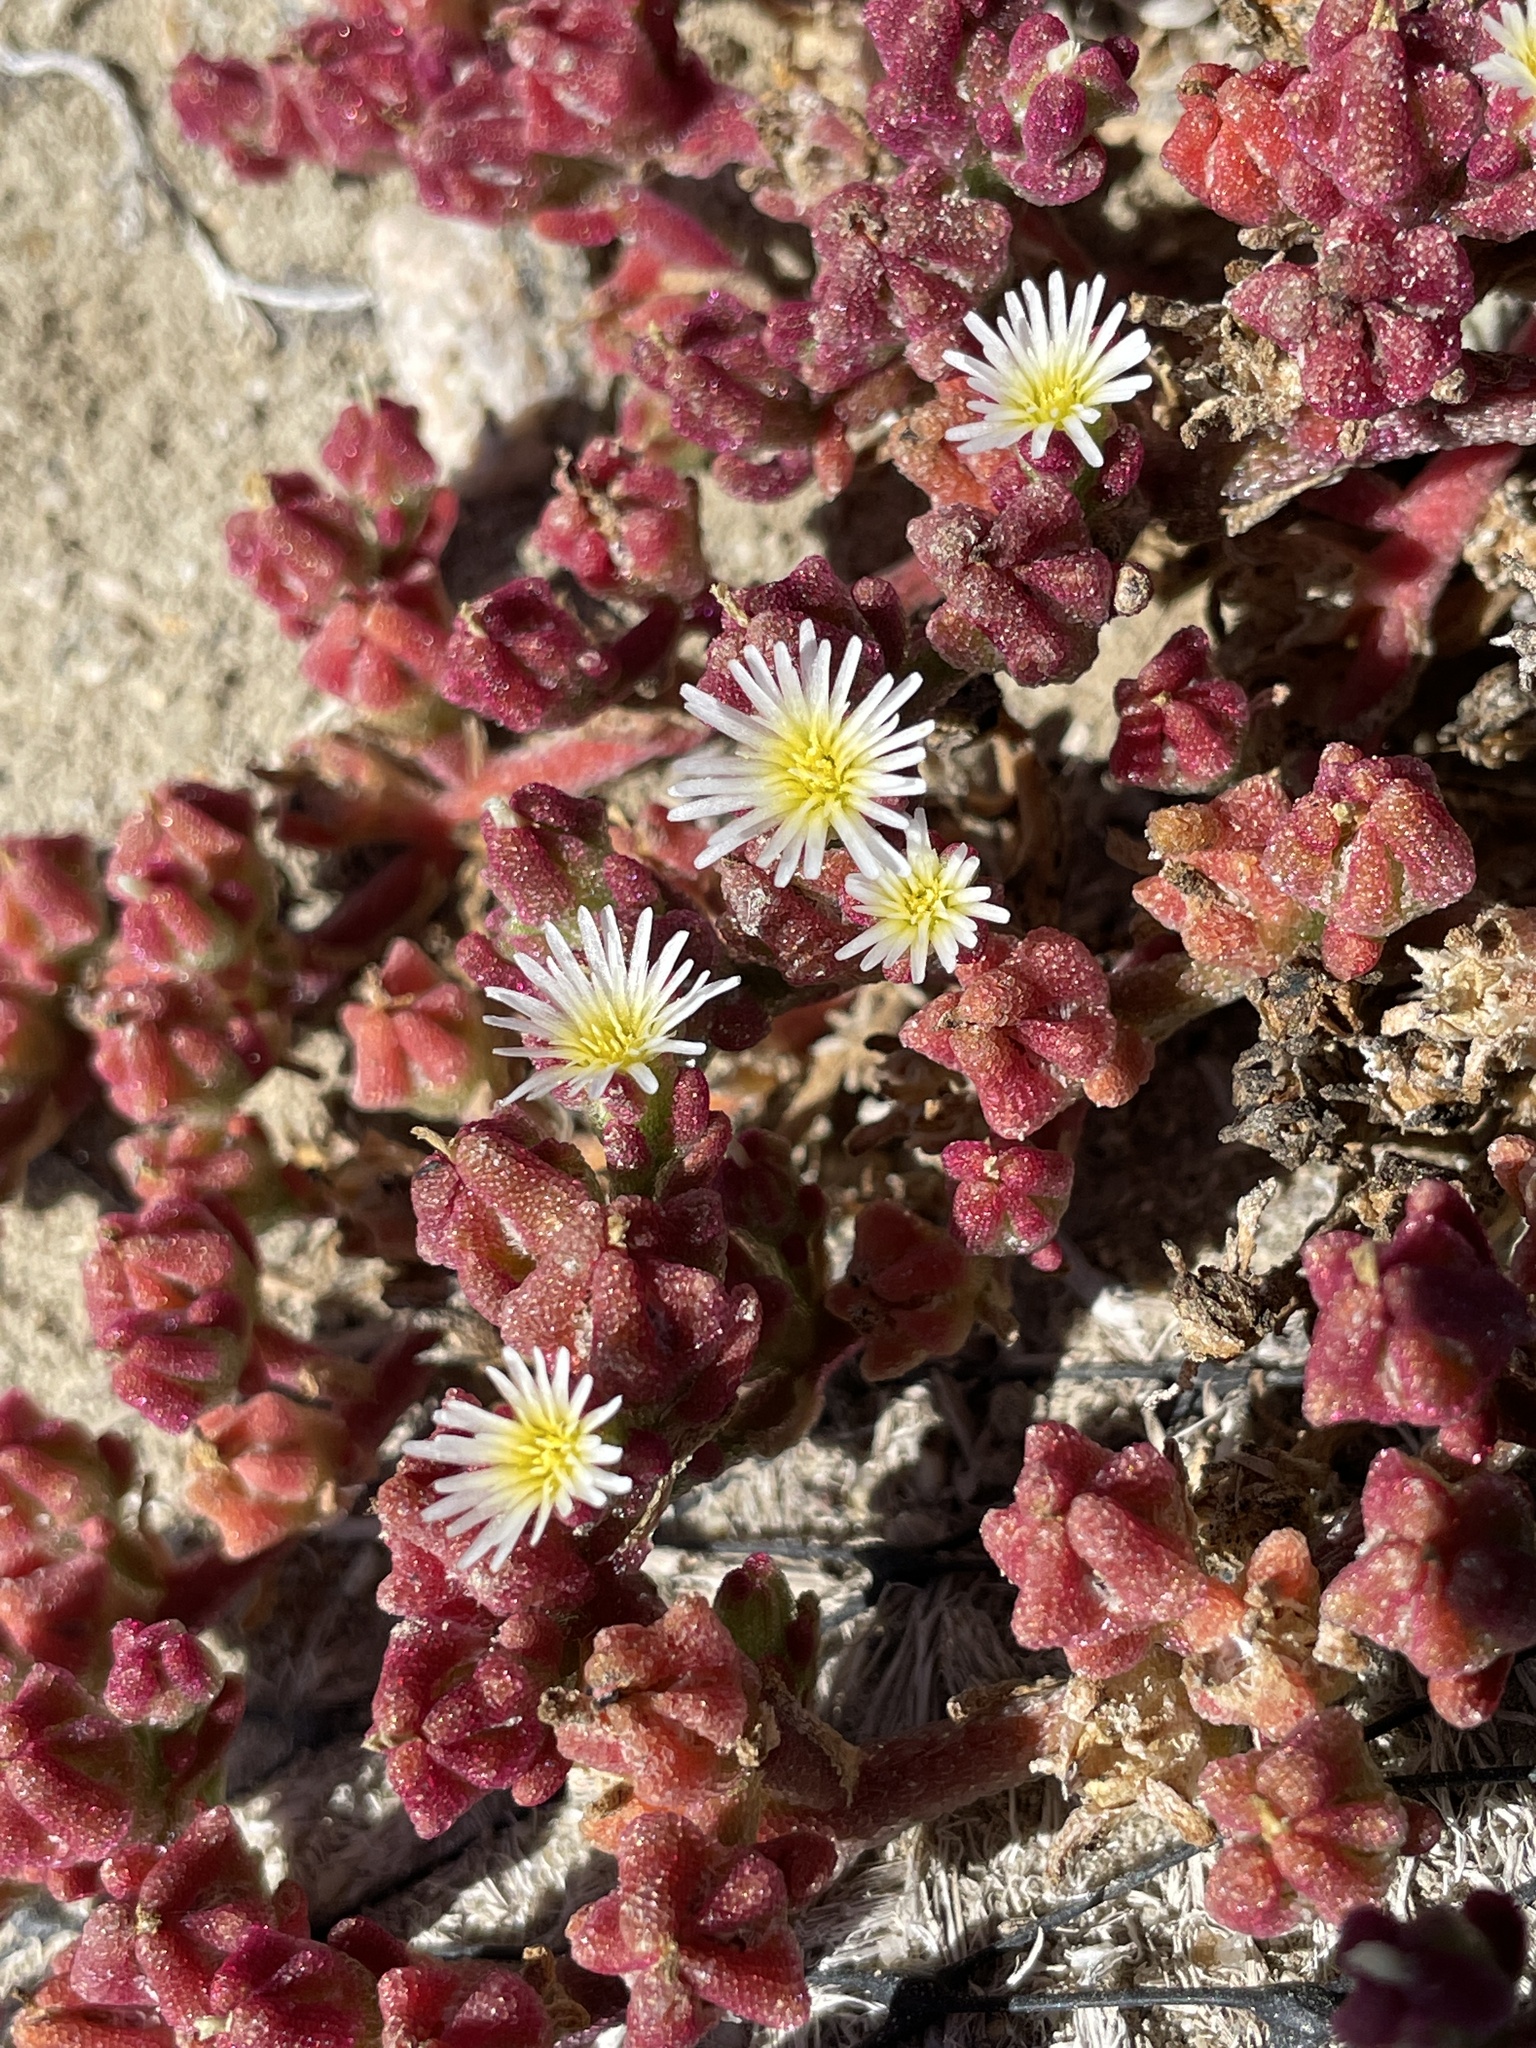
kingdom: Plantae
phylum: Tracheophyta
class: Magnoliopsida
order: Caryophyllales
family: Aizoaceae
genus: Mesembryanthemum
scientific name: Mesembryanthemum nodiflorum
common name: Slenderleaf iceplant
